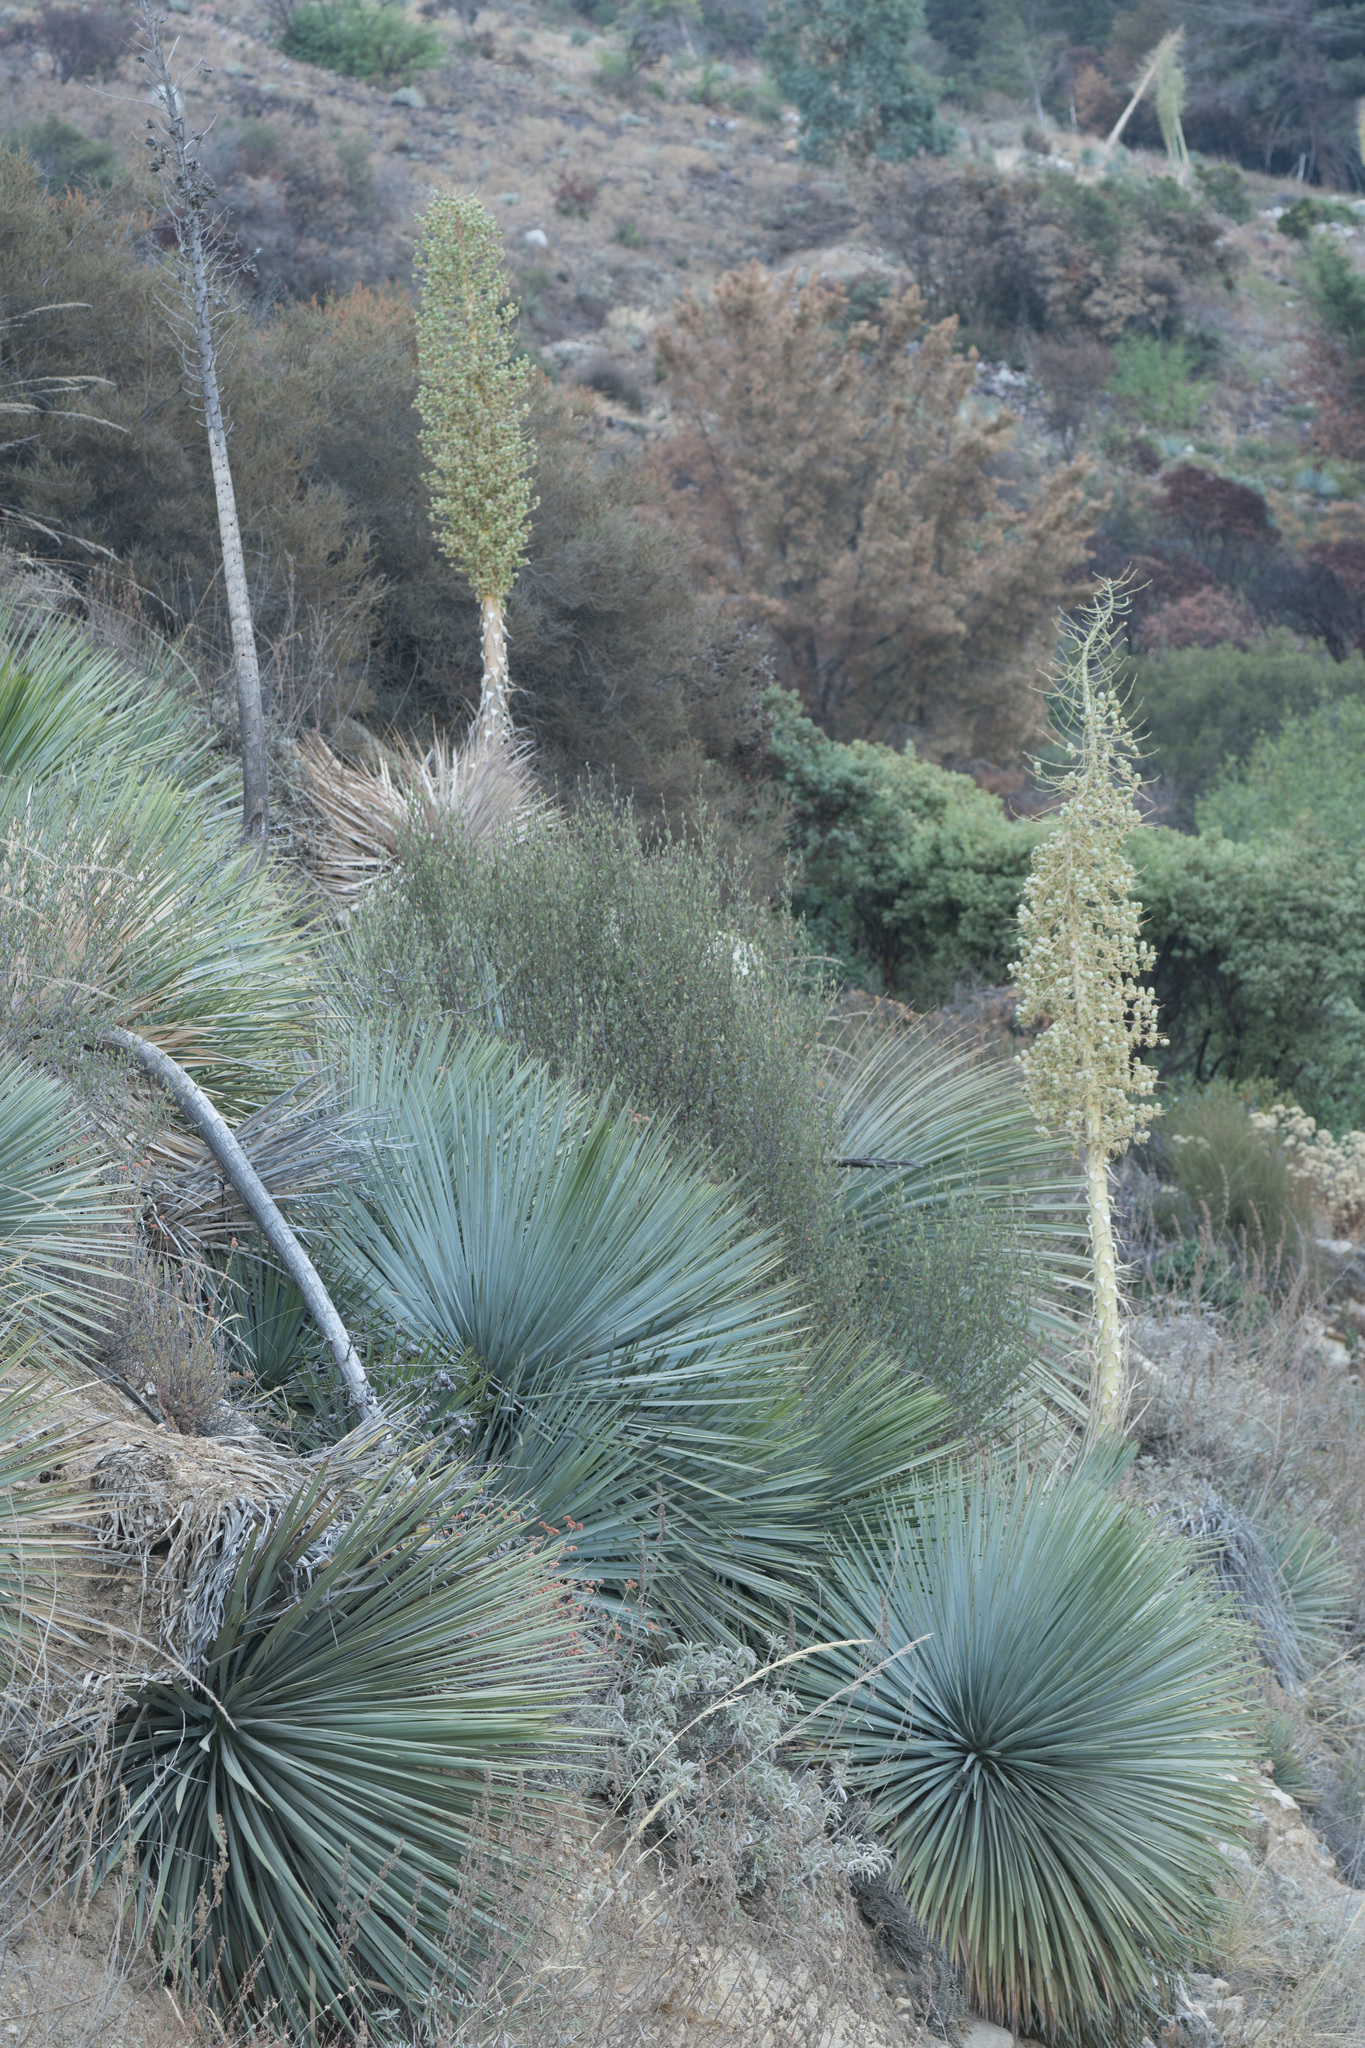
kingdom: Plantae
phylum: Tracheophyta
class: Liliopsida
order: Asparagales
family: Asparagaceae
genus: Hesperoyucca
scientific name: Hesperoyucca whipplei
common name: Our lord's-candle
